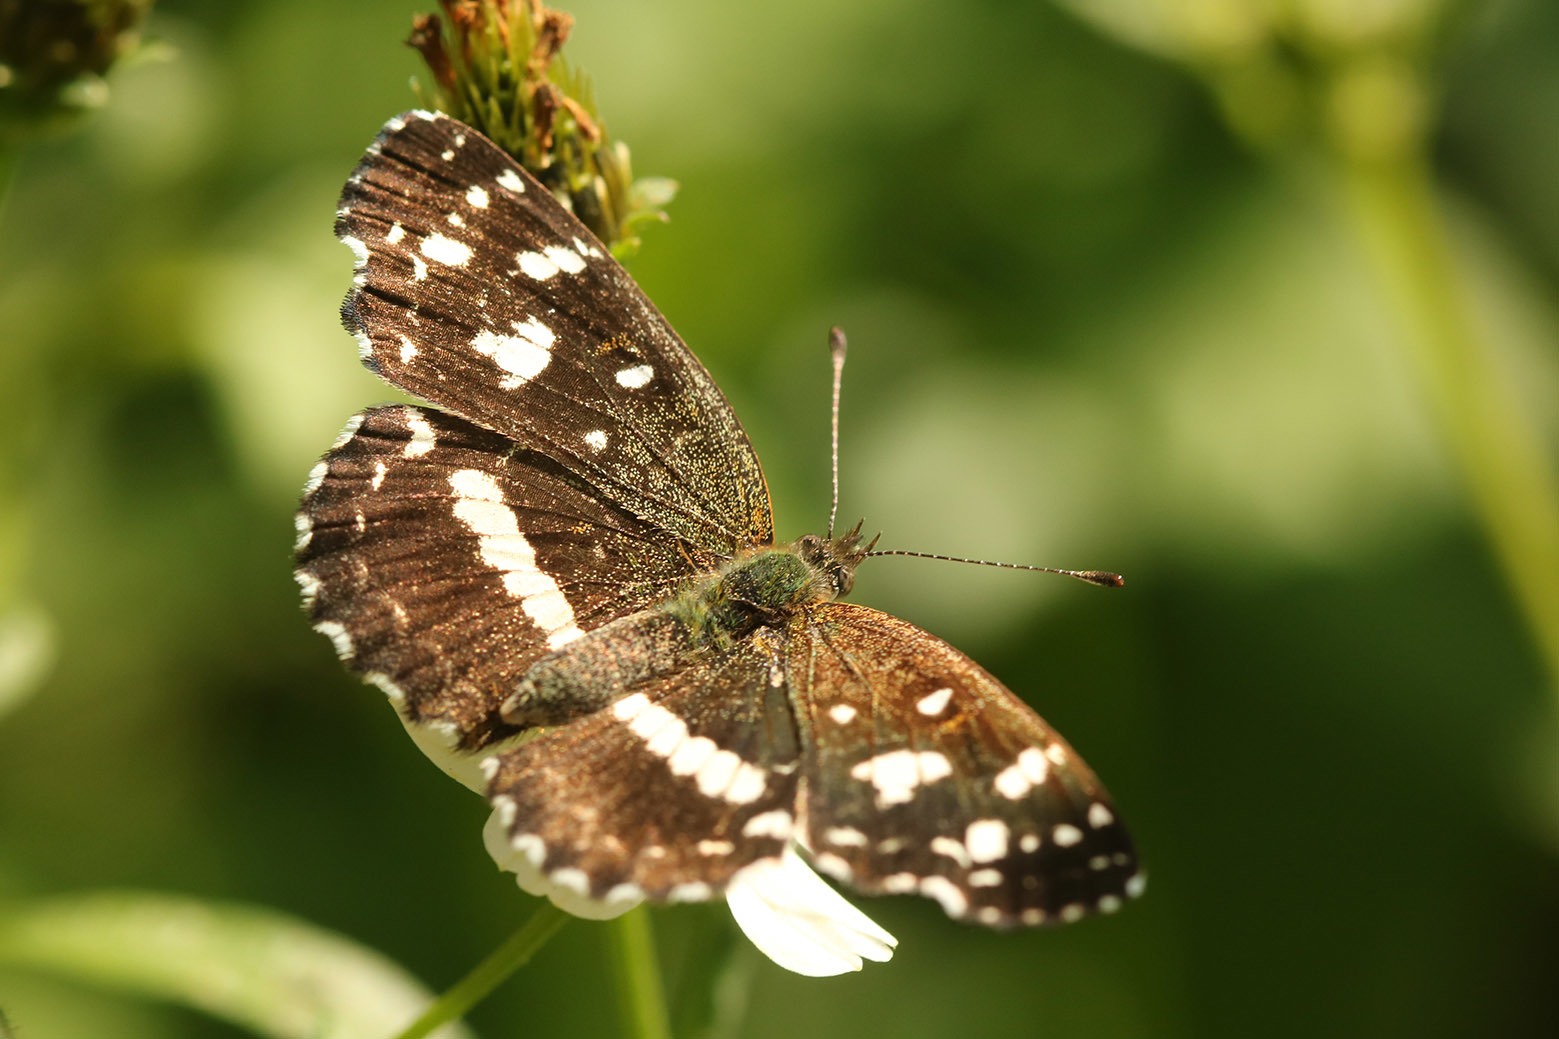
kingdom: Animalia
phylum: Arthropoda
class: Insecta
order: Lepidoptera
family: Nymphalidae
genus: Ortilia
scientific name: Ortilia ithra
